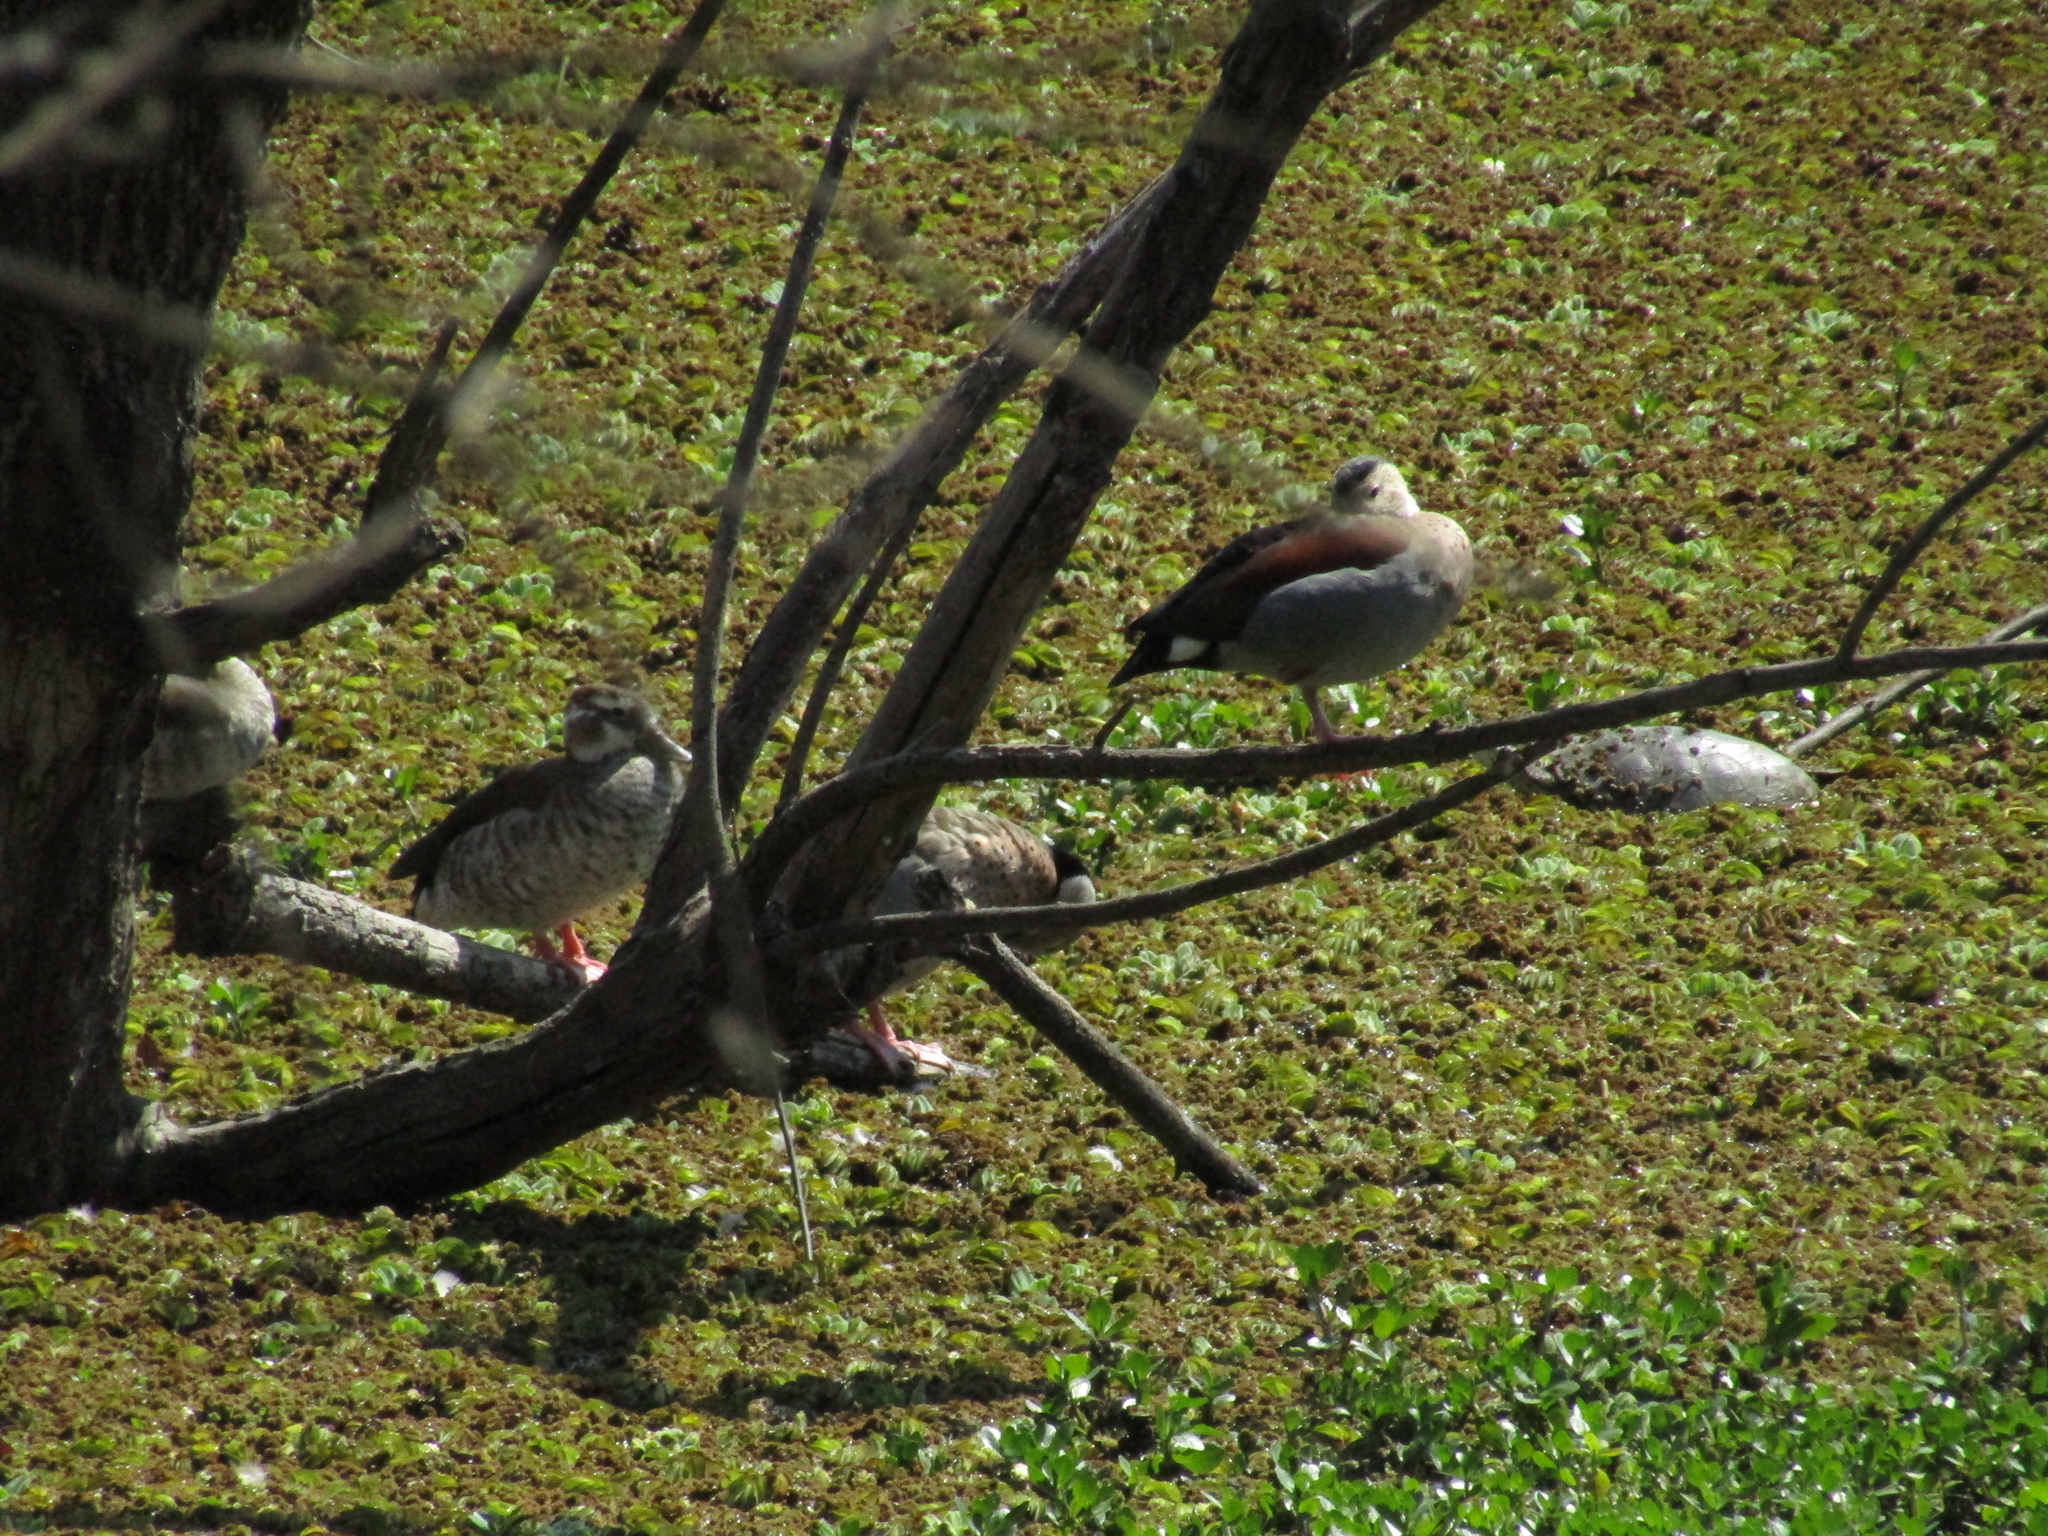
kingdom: Animalia
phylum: Chordata
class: Aves
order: Anseriformes
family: Anatidae
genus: Callonetta
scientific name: Callonetta leucophrys
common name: Ringed teal
